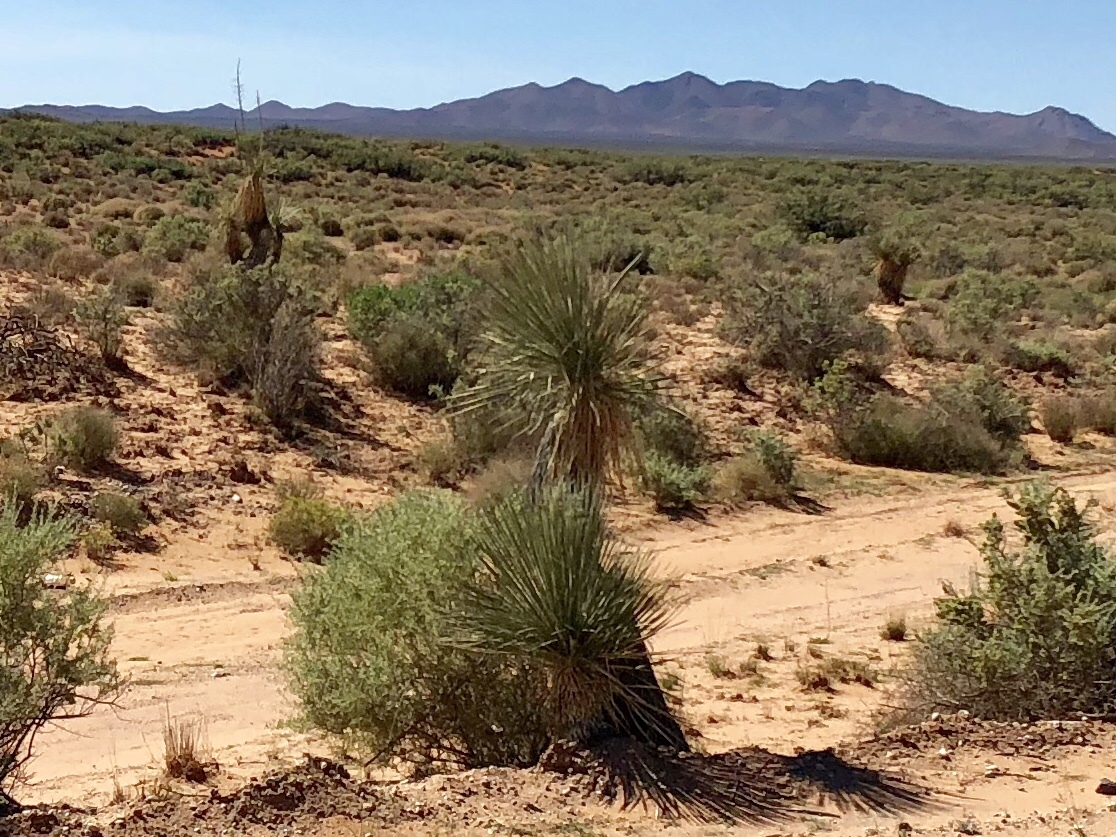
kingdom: Plantae
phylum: Tracheophyta
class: Liliopsida
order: Asparagales
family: Asparagaceae
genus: Yucca
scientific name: Yucca elata
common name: Palmella
